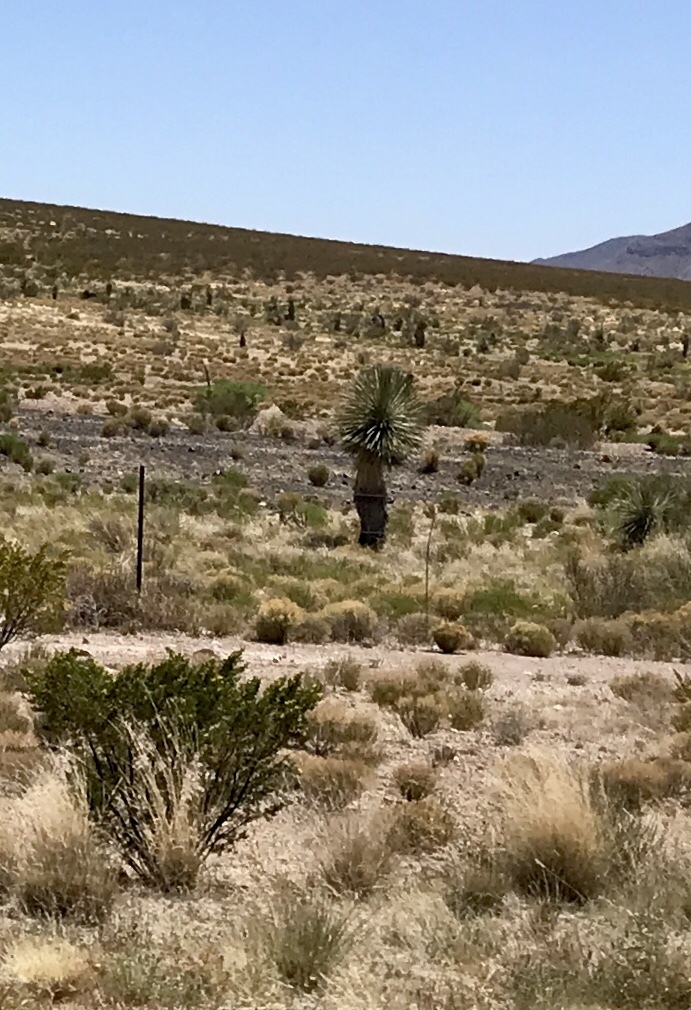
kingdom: Plantae
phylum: Tracheophyta
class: Liliopsida
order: Asparagales
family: Asparagaceae
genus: Yucca
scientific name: Yucca elata
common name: Palmella
